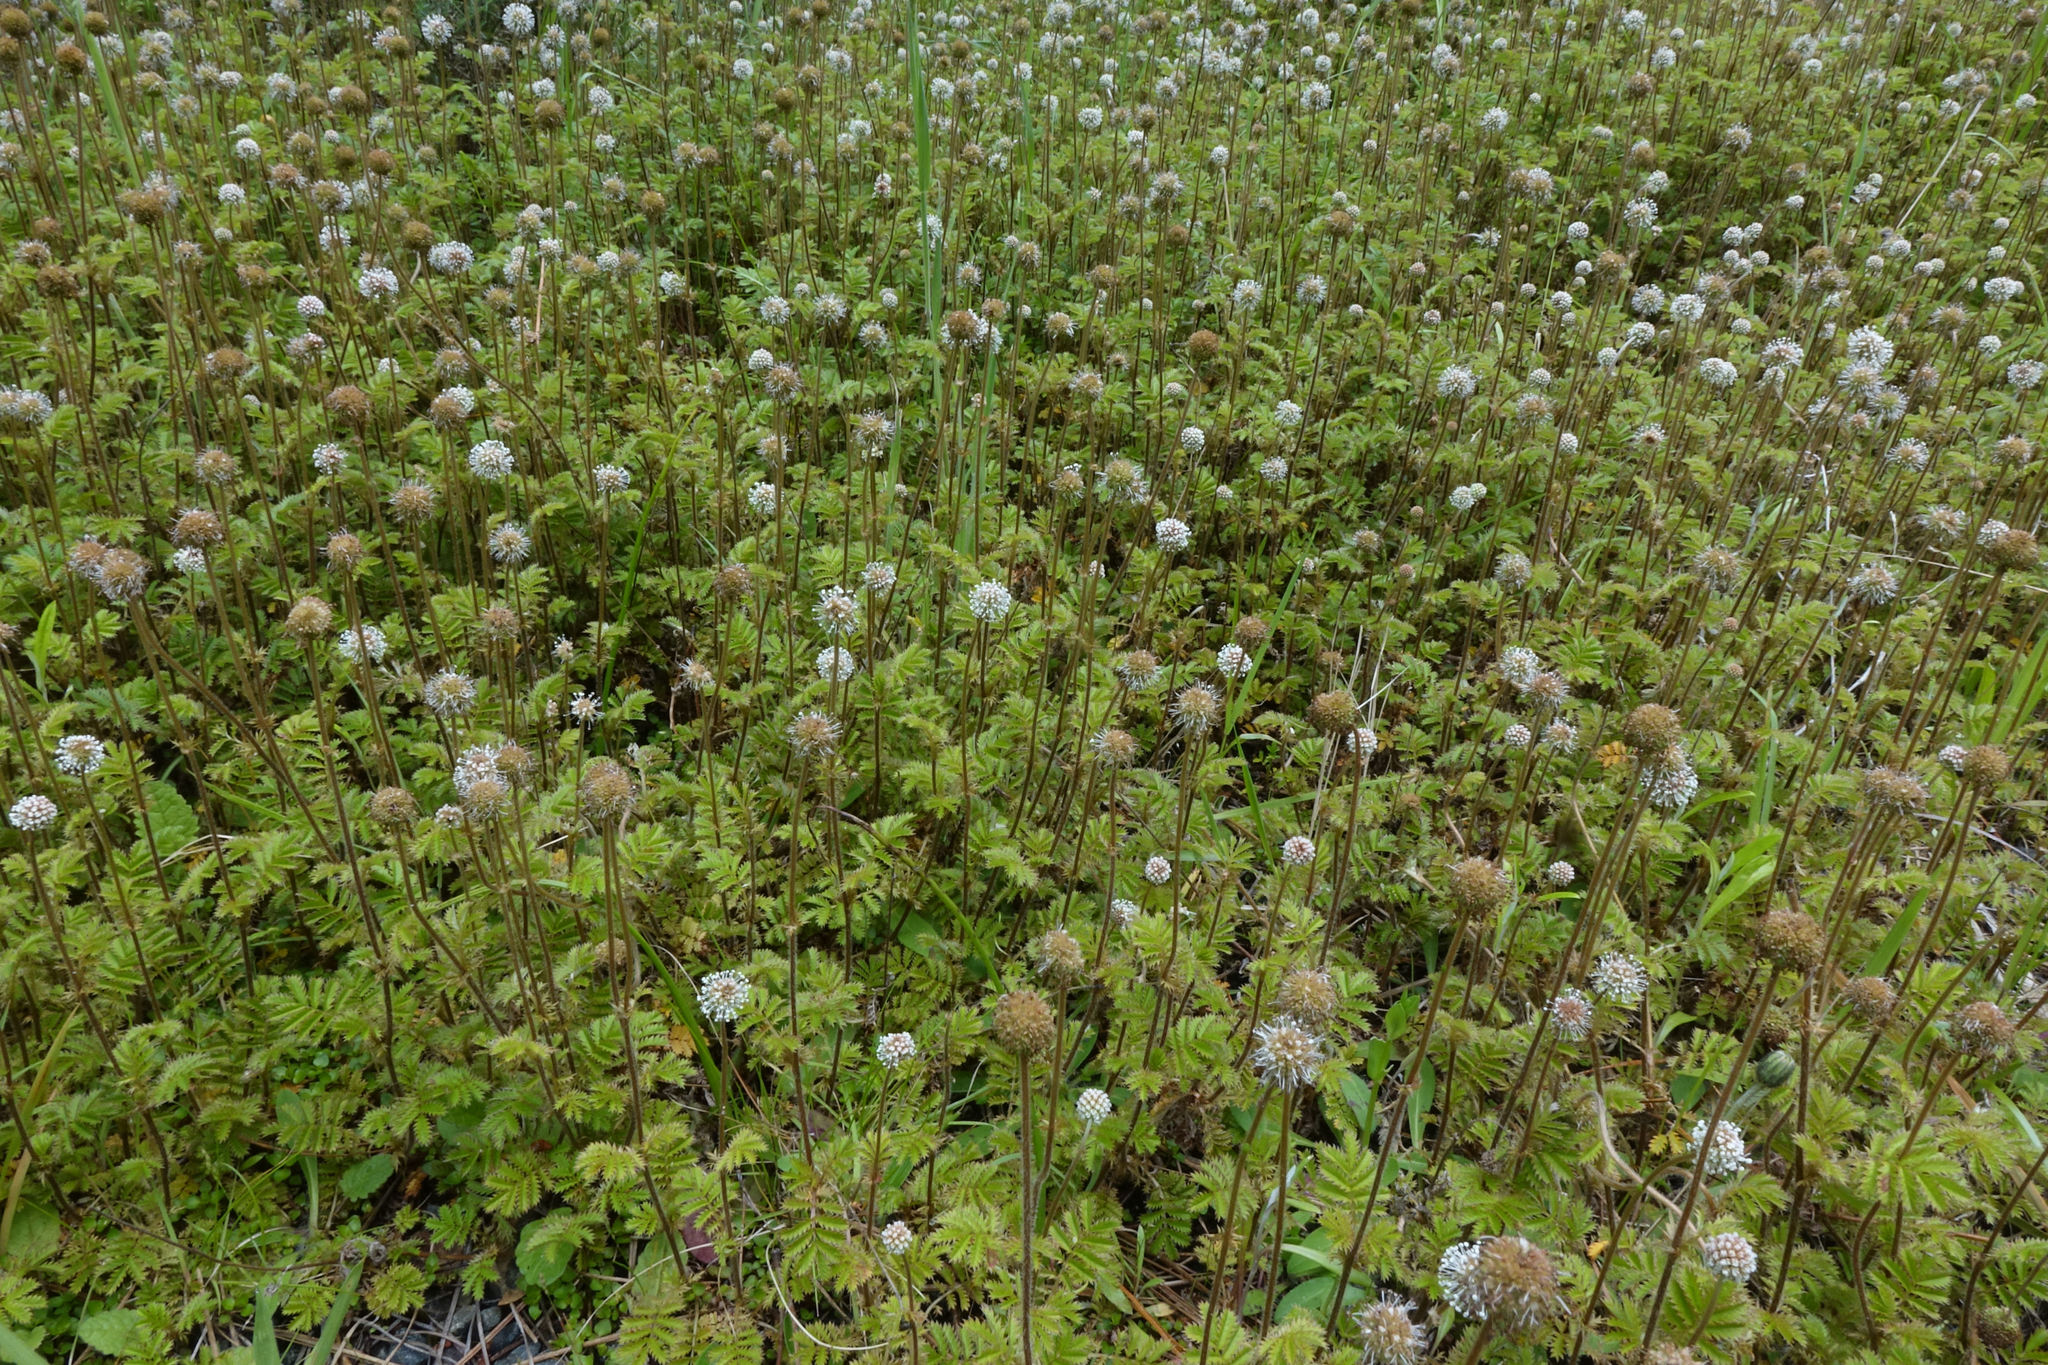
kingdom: Plantae
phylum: Tracheophyta
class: Magnoliopsida
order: Rosales
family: Rosaceae
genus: Acaena
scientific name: Acaena anserinifolia
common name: Bronze pirri-pirri-bur
